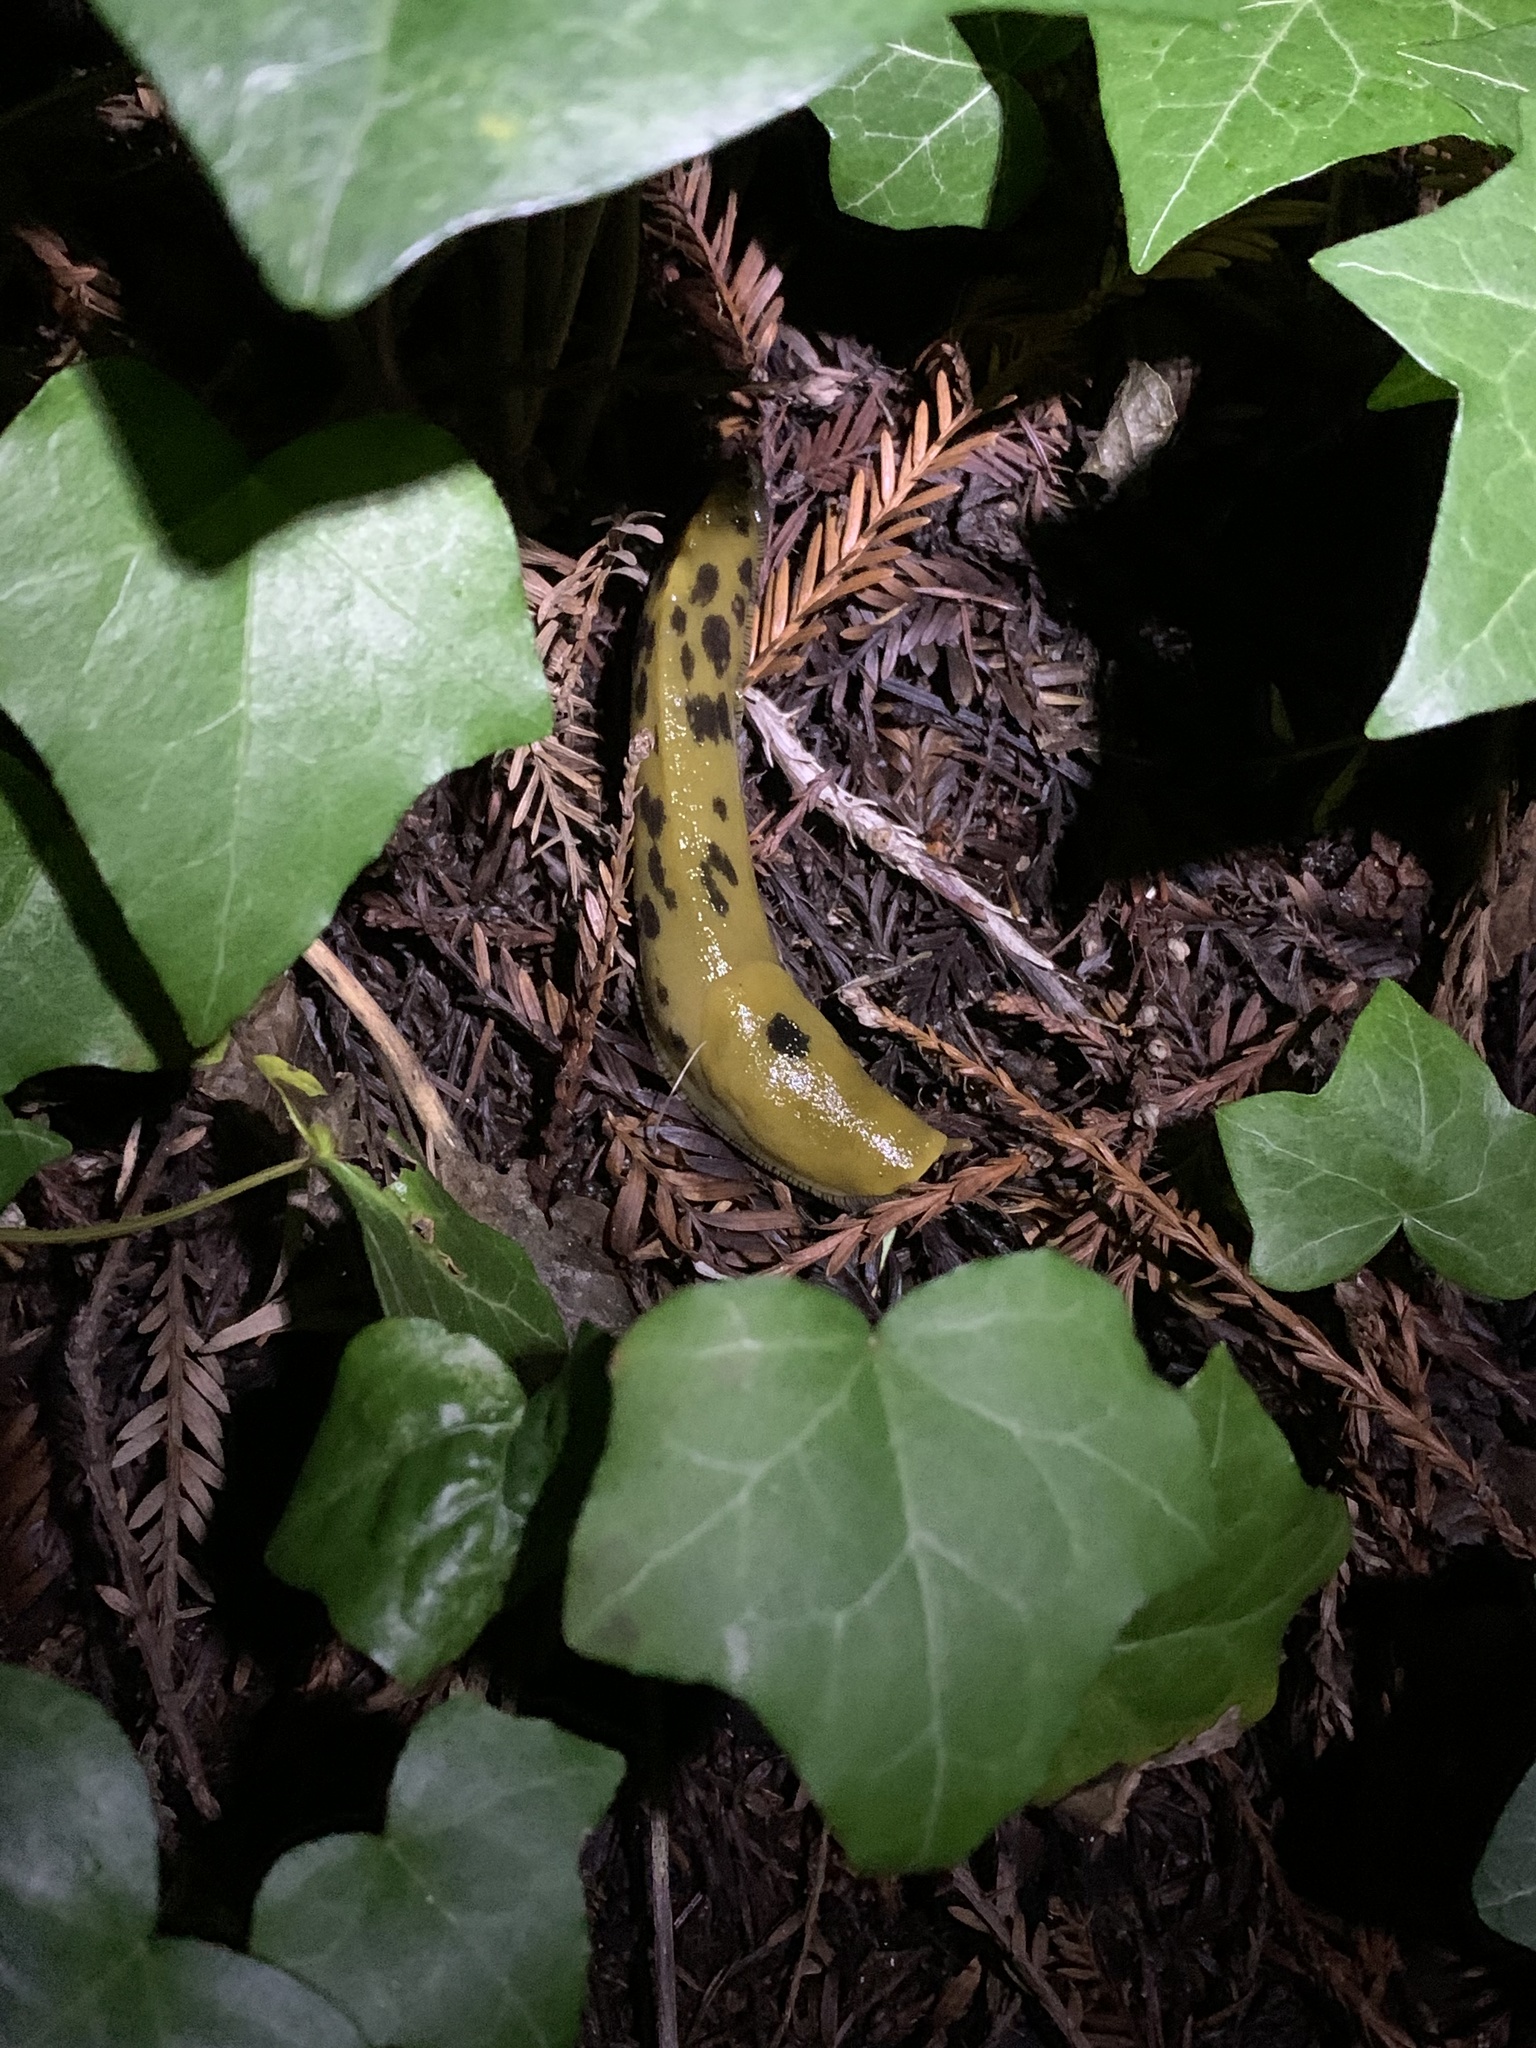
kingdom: Animalia
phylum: Mollusca
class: Gastropoda
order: Stylommatophora
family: Ariolimacidae
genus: Ariolimax
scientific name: Ariolimax buttoni
